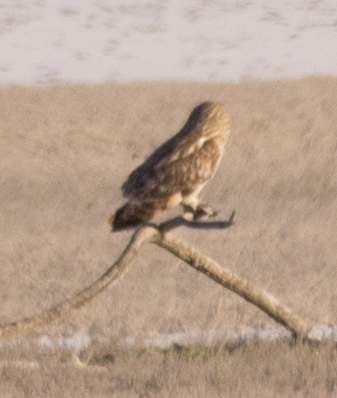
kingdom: Animalia
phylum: Chordata
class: Aves
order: Strigiformes
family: Strigidae
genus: Asio
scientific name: Asio flammeus
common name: Short-eared owl
